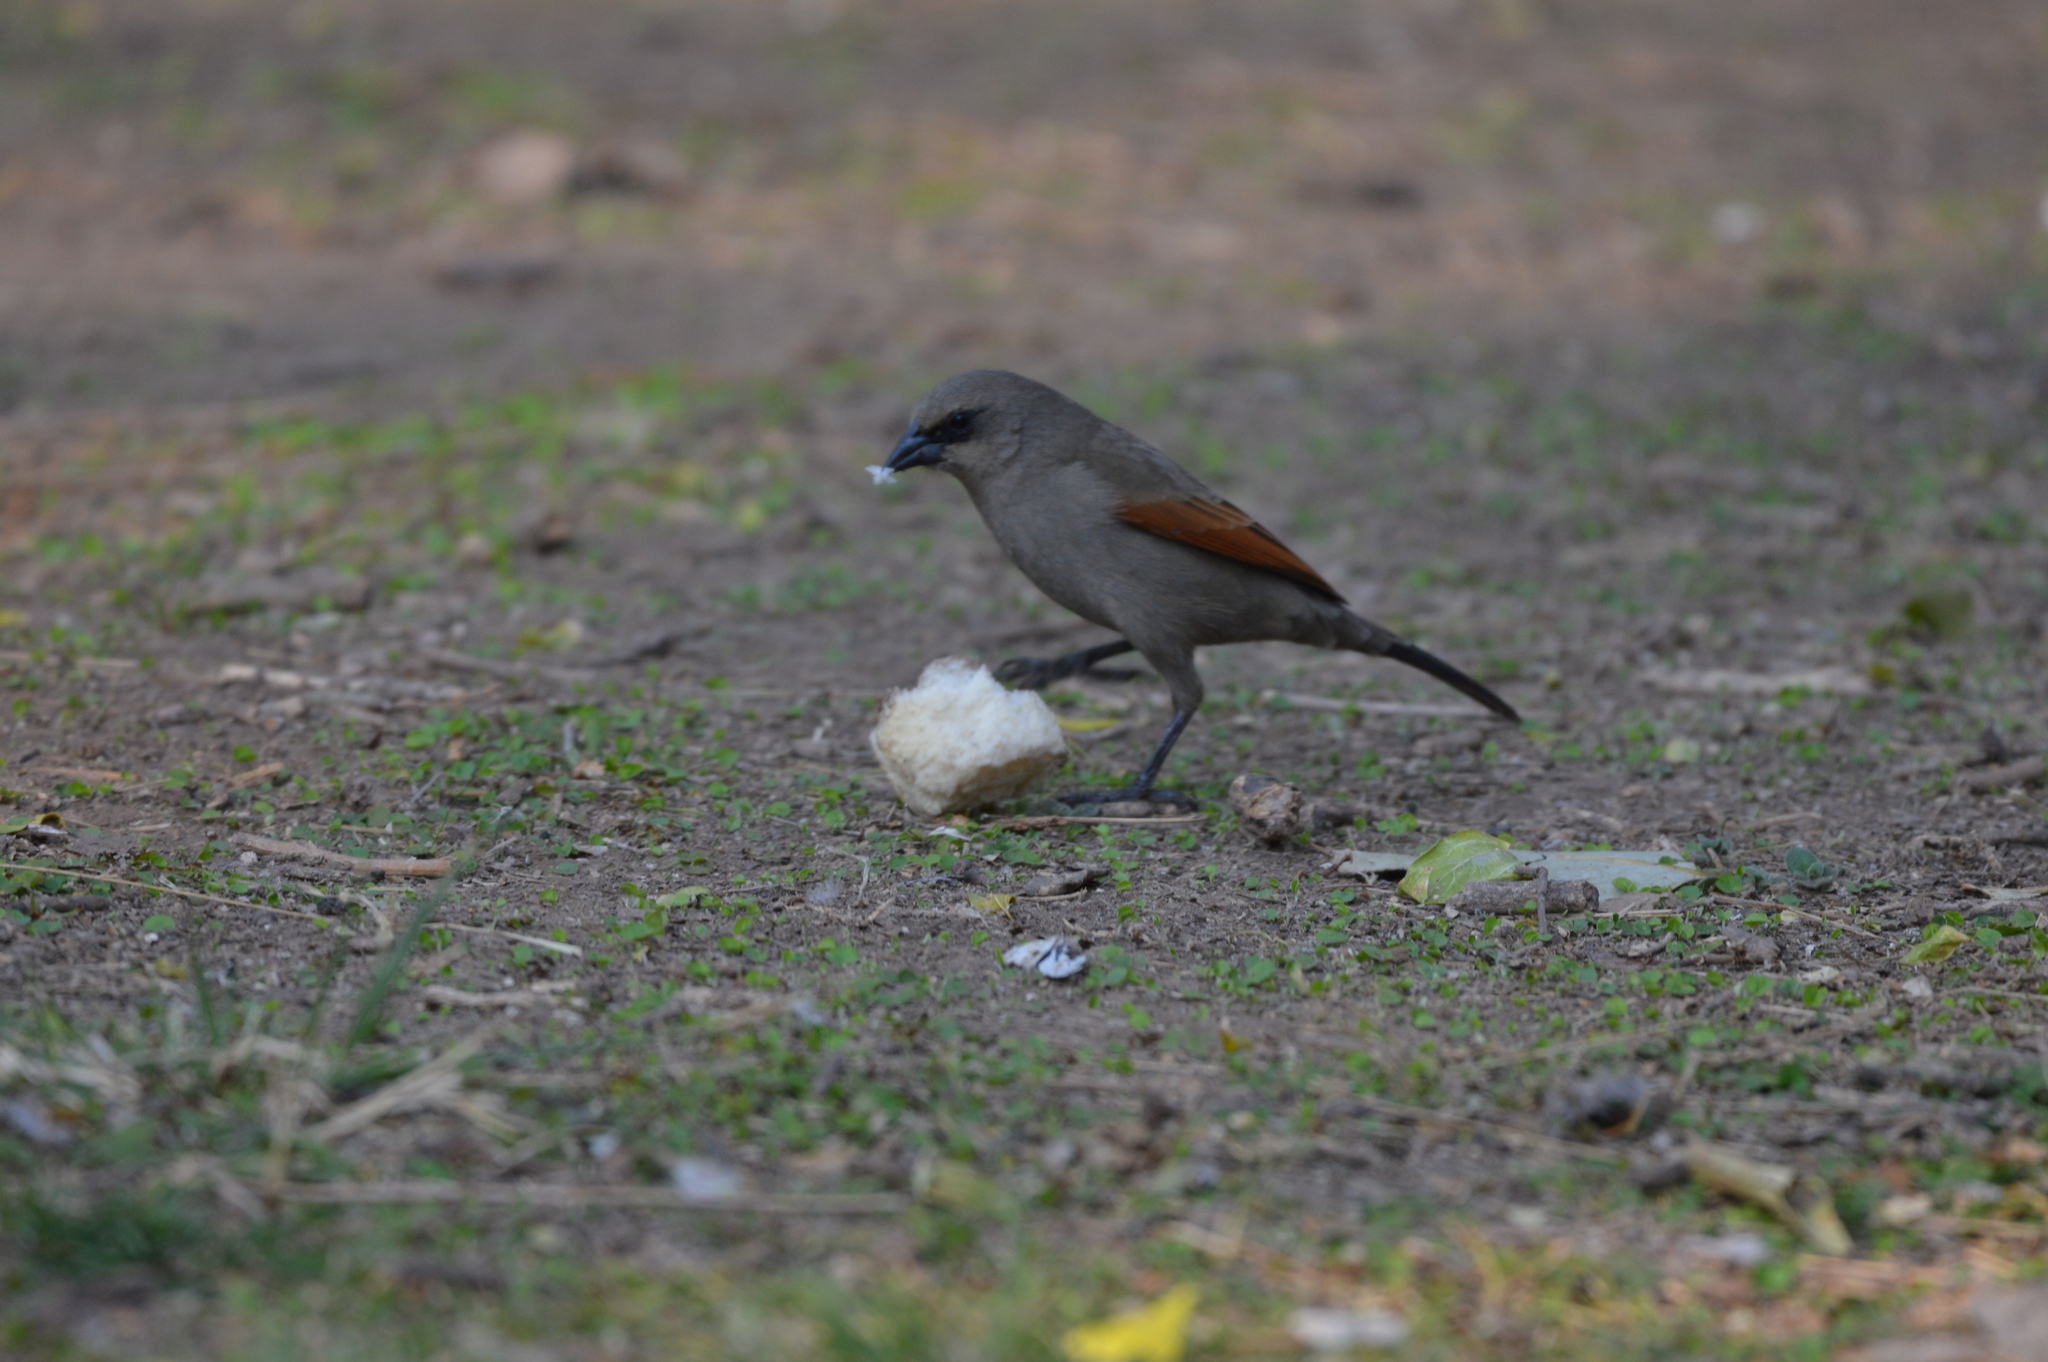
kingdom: Animalia
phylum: Chordata
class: Aves
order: Passeriformes
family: Icteridae
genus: Agelaioides
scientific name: Agelaioides badius
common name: Baywing
